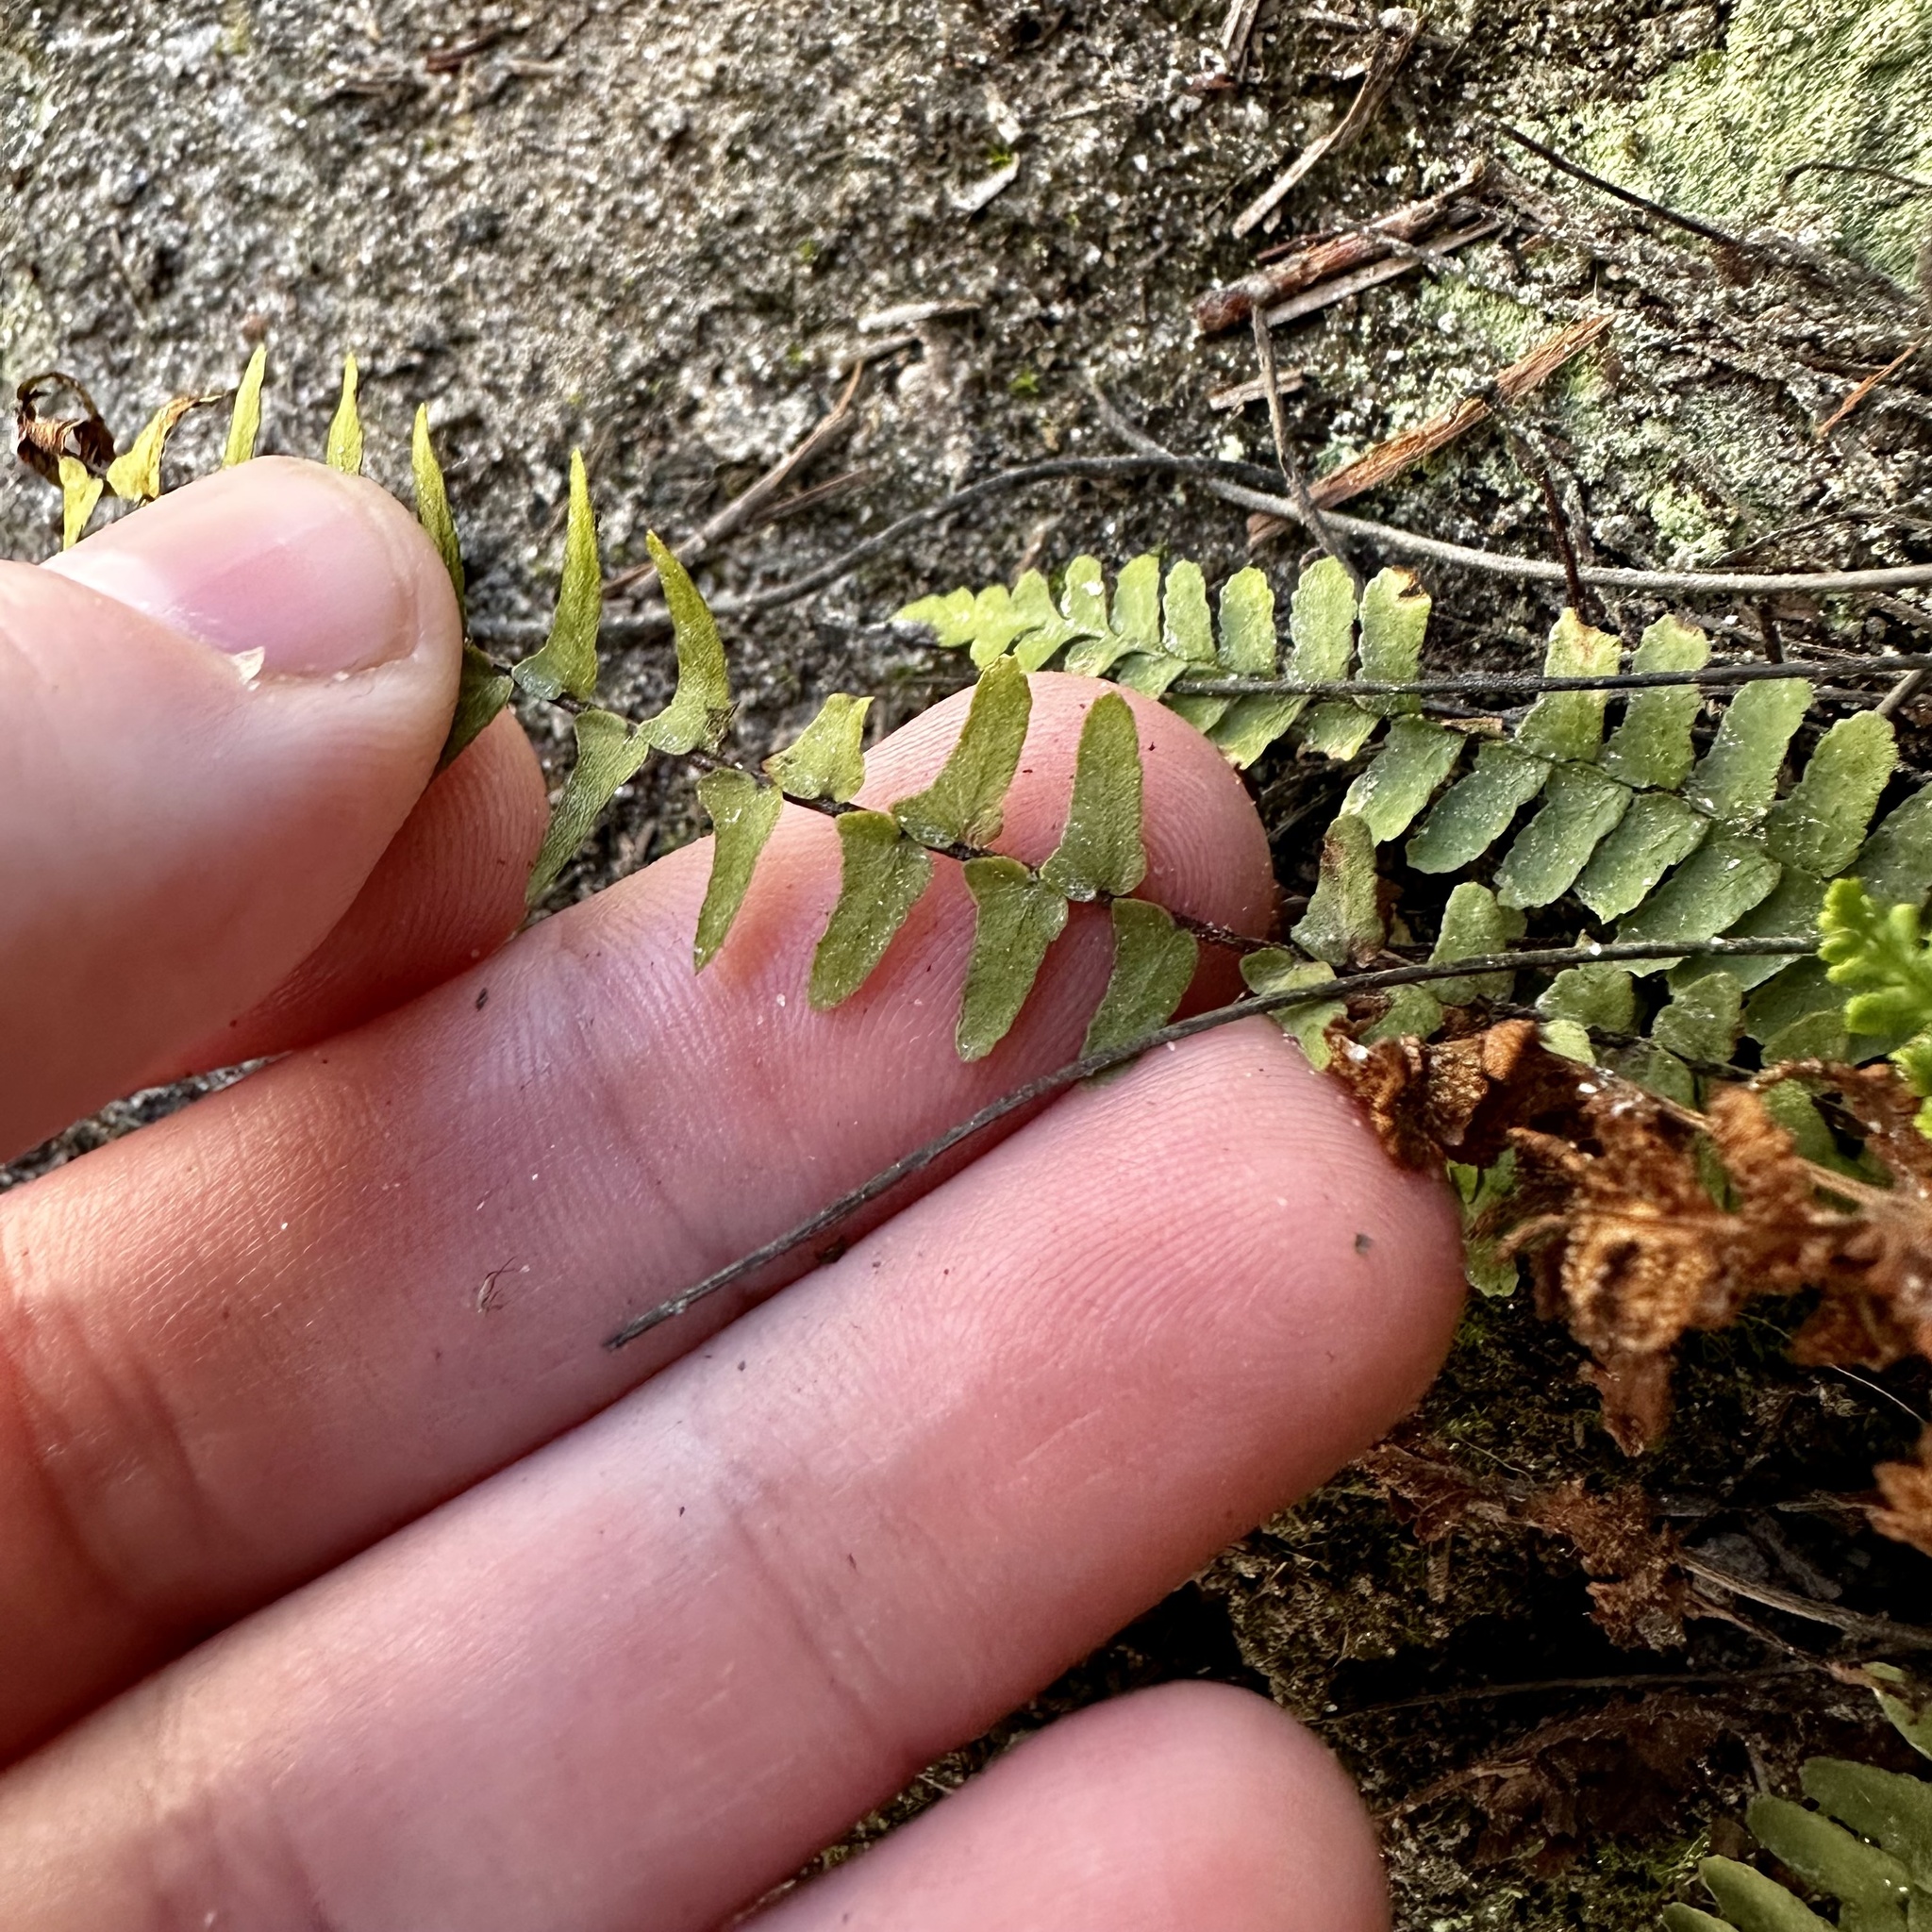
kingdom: Plantae
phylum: Tracheophyta
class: Polypodiopsida
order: Polypodiales
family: Aspleniaceae
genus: Asplenium
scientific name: Asplenium platyneuron
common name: Ebony spleenwort
